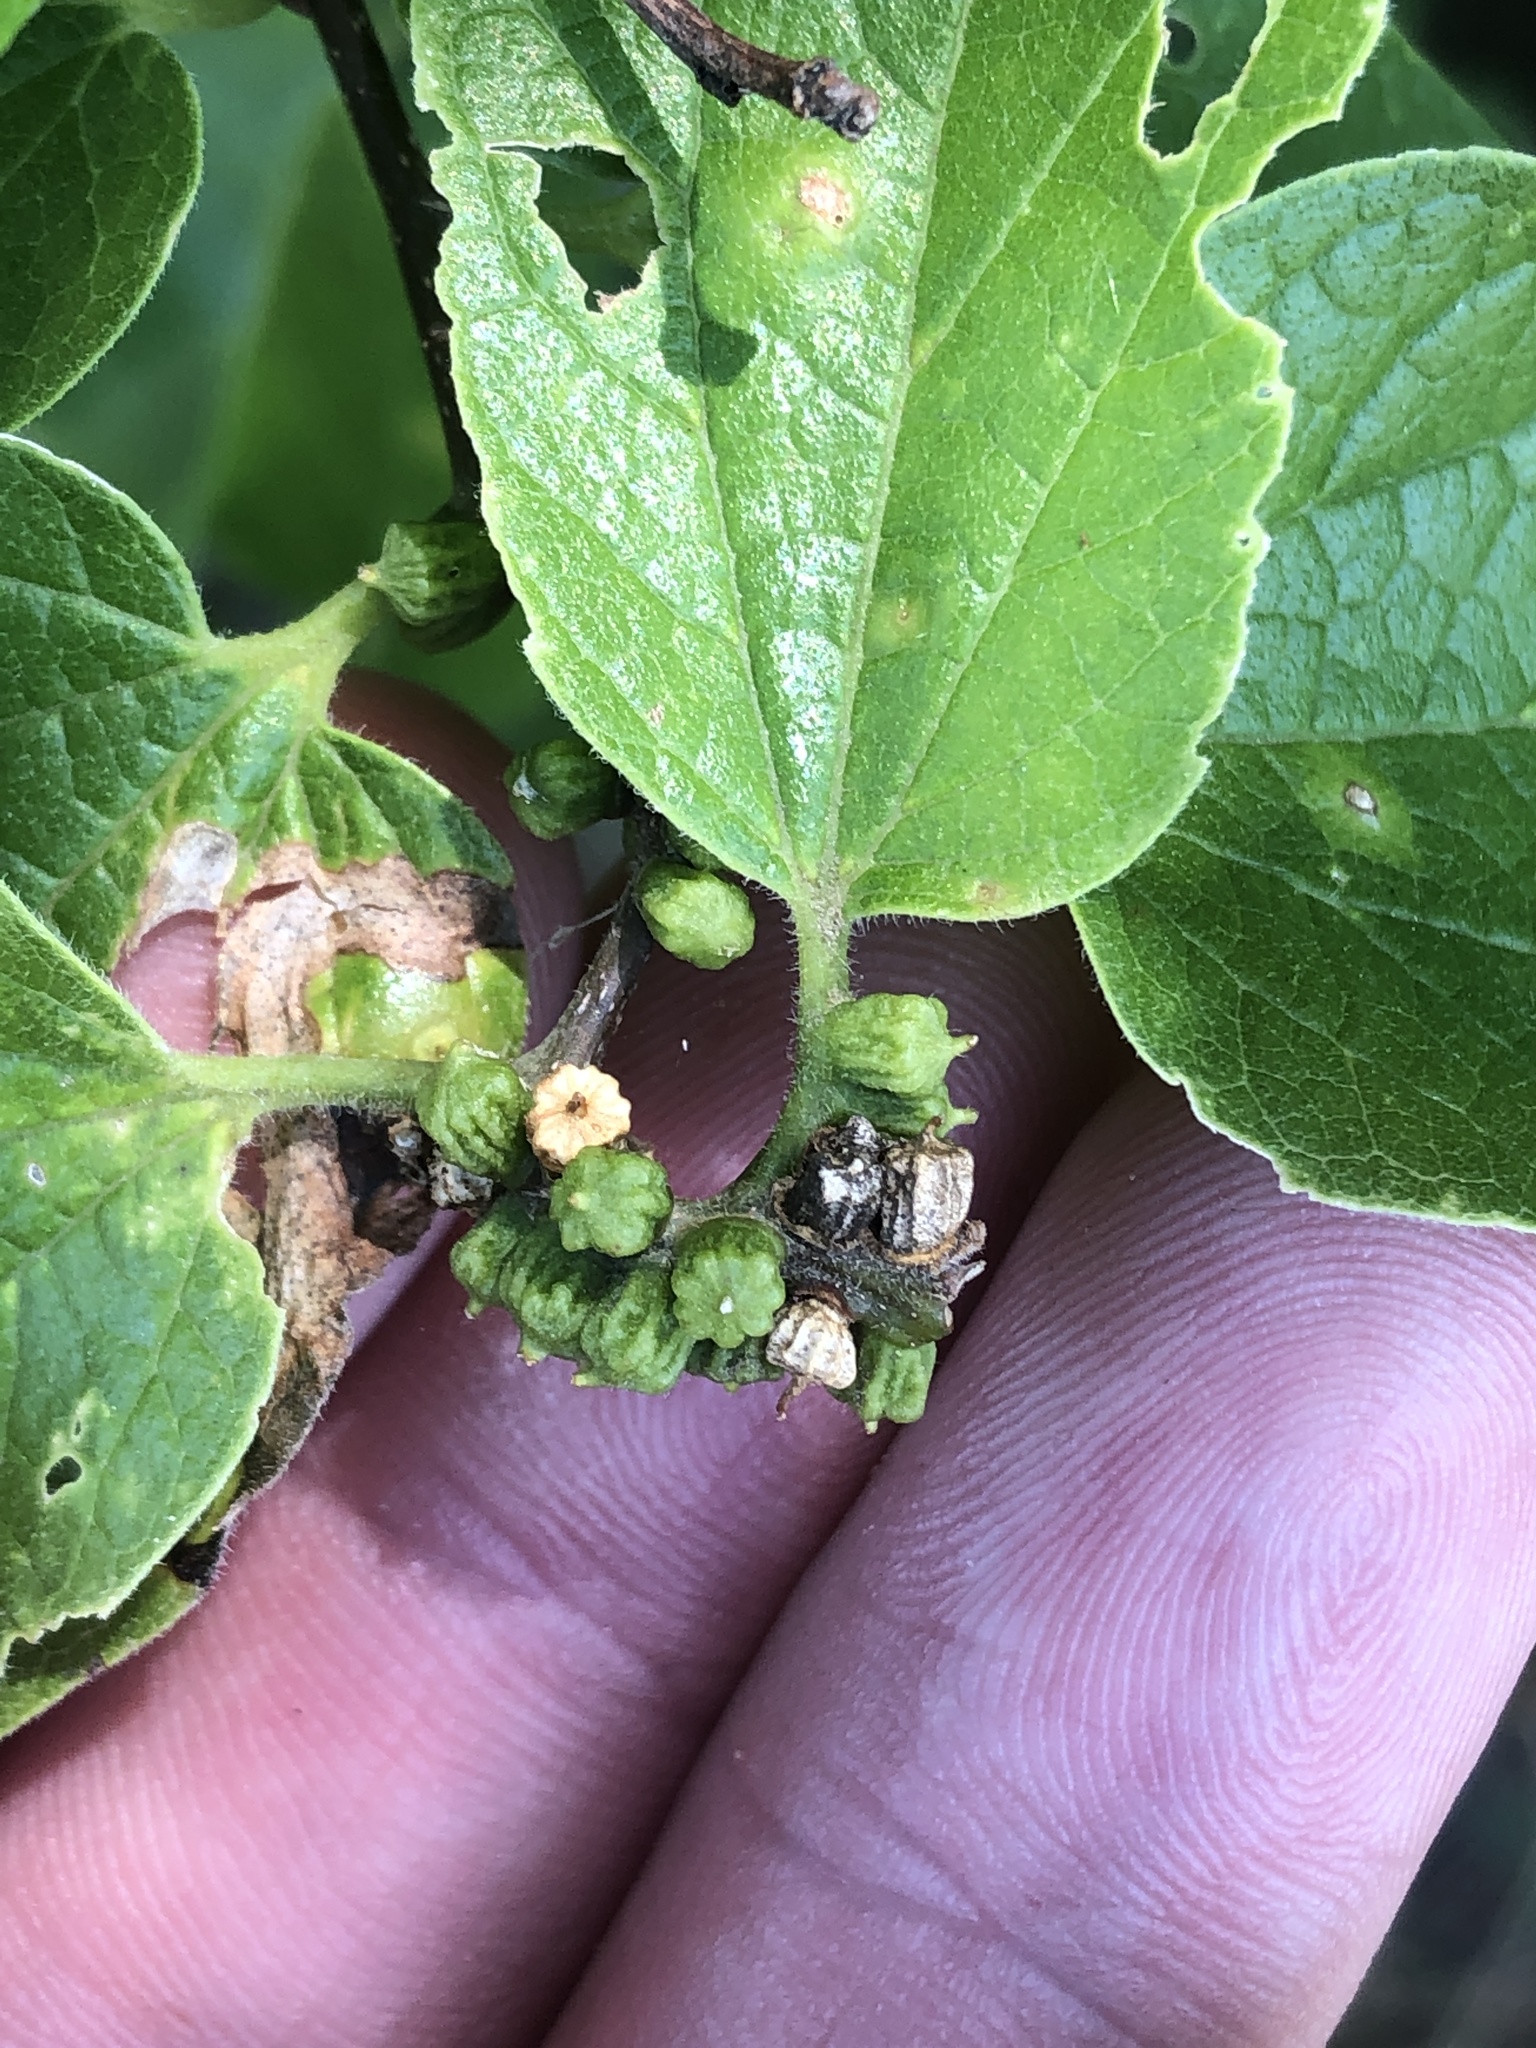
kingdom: Animalia
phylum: Arthropoda
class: Insecta
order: Diptera
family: Cecidomyiidae
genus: Celticecis
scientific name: Celticecis ramicola
